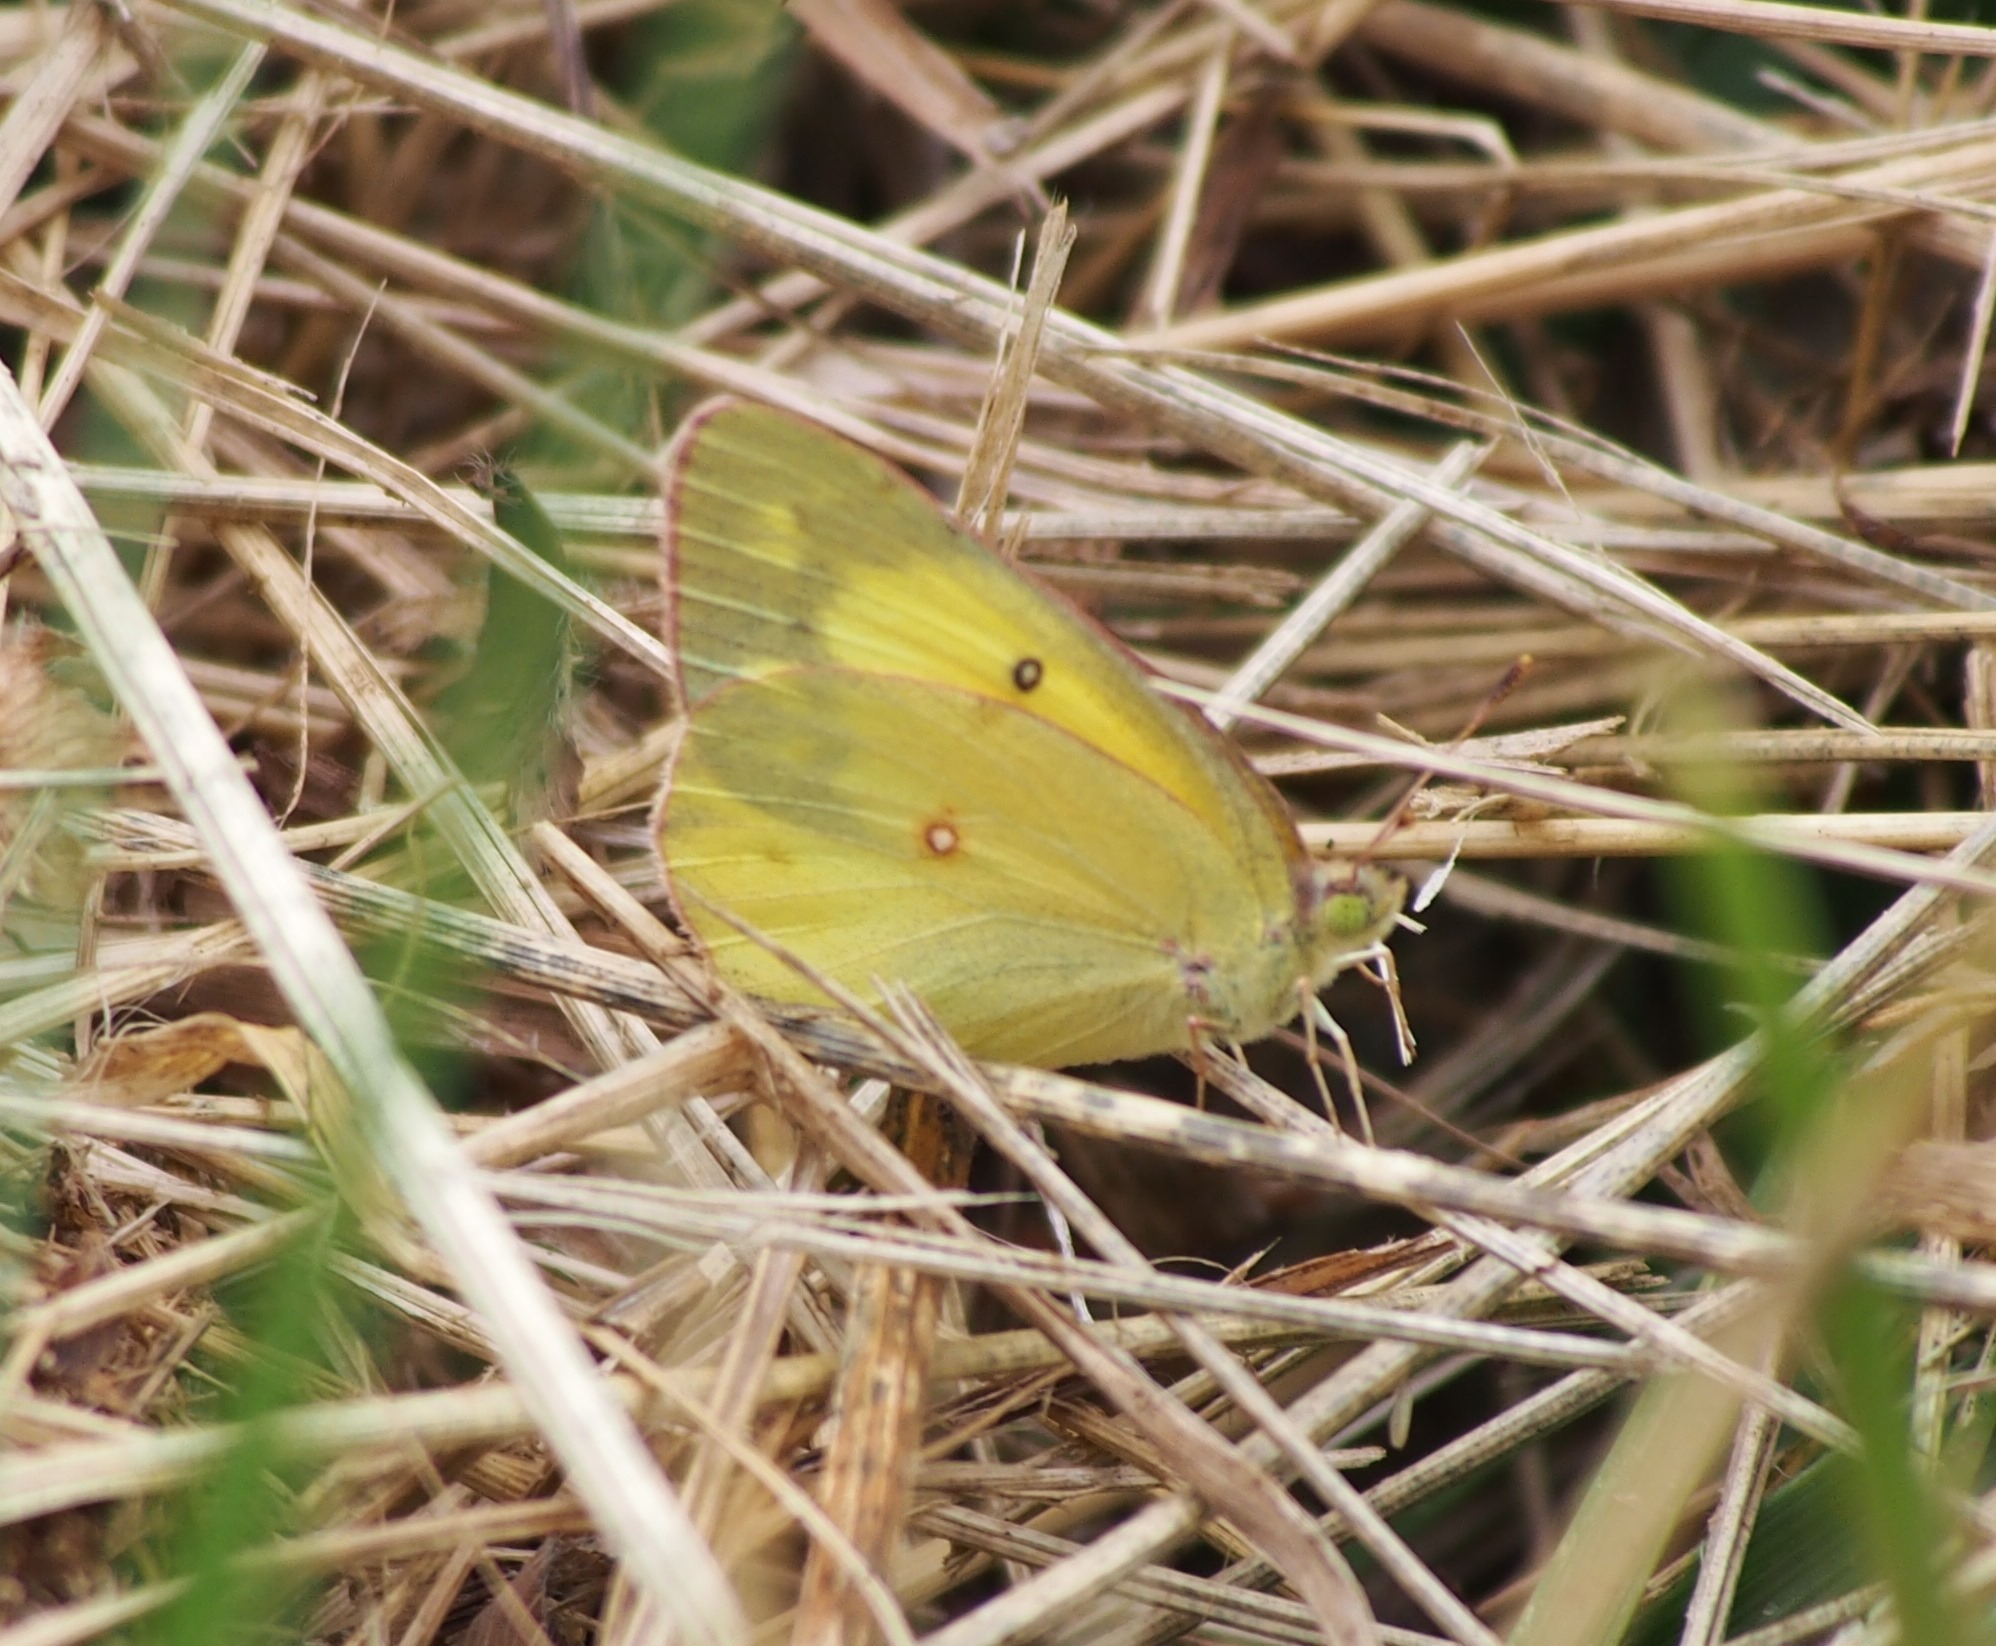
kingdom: Animalia
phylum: Arthropoda
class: Insecta
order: Lepidoptera
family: Pieridae
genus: Colias
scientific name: Colias philodice
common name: Clouded sulphur
